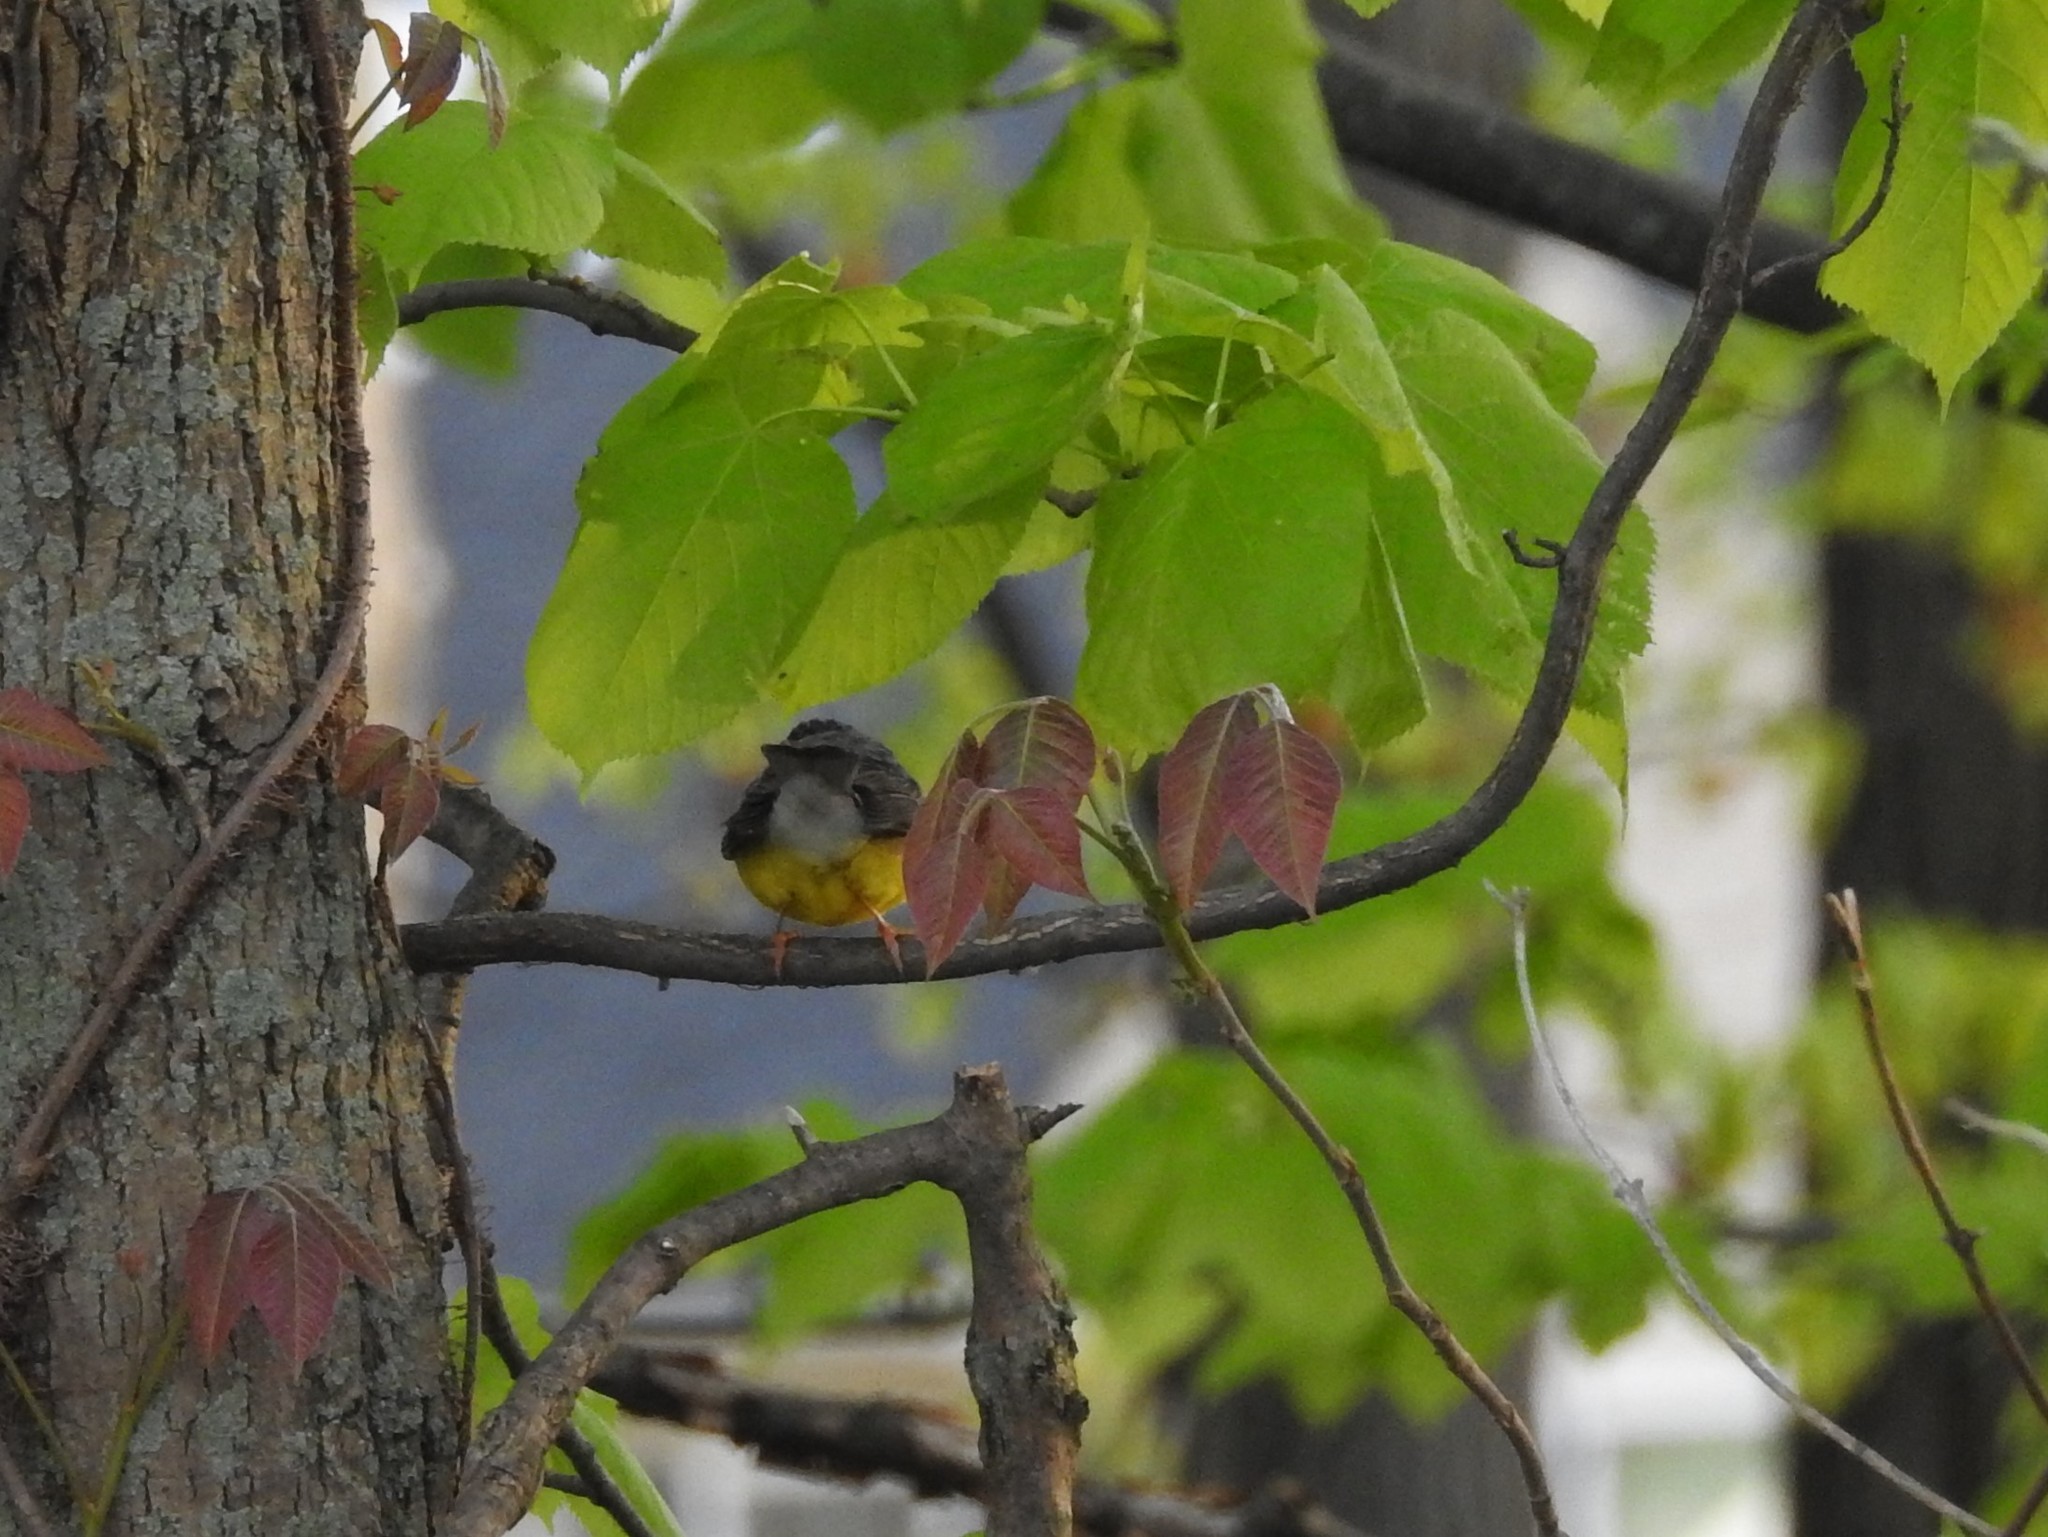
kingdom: Animalia
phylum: Chordata
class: Aves
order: Passeriformes
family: Parulidae
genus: Cardellina
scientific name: Cardellina canadensis
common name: Canada warbler
